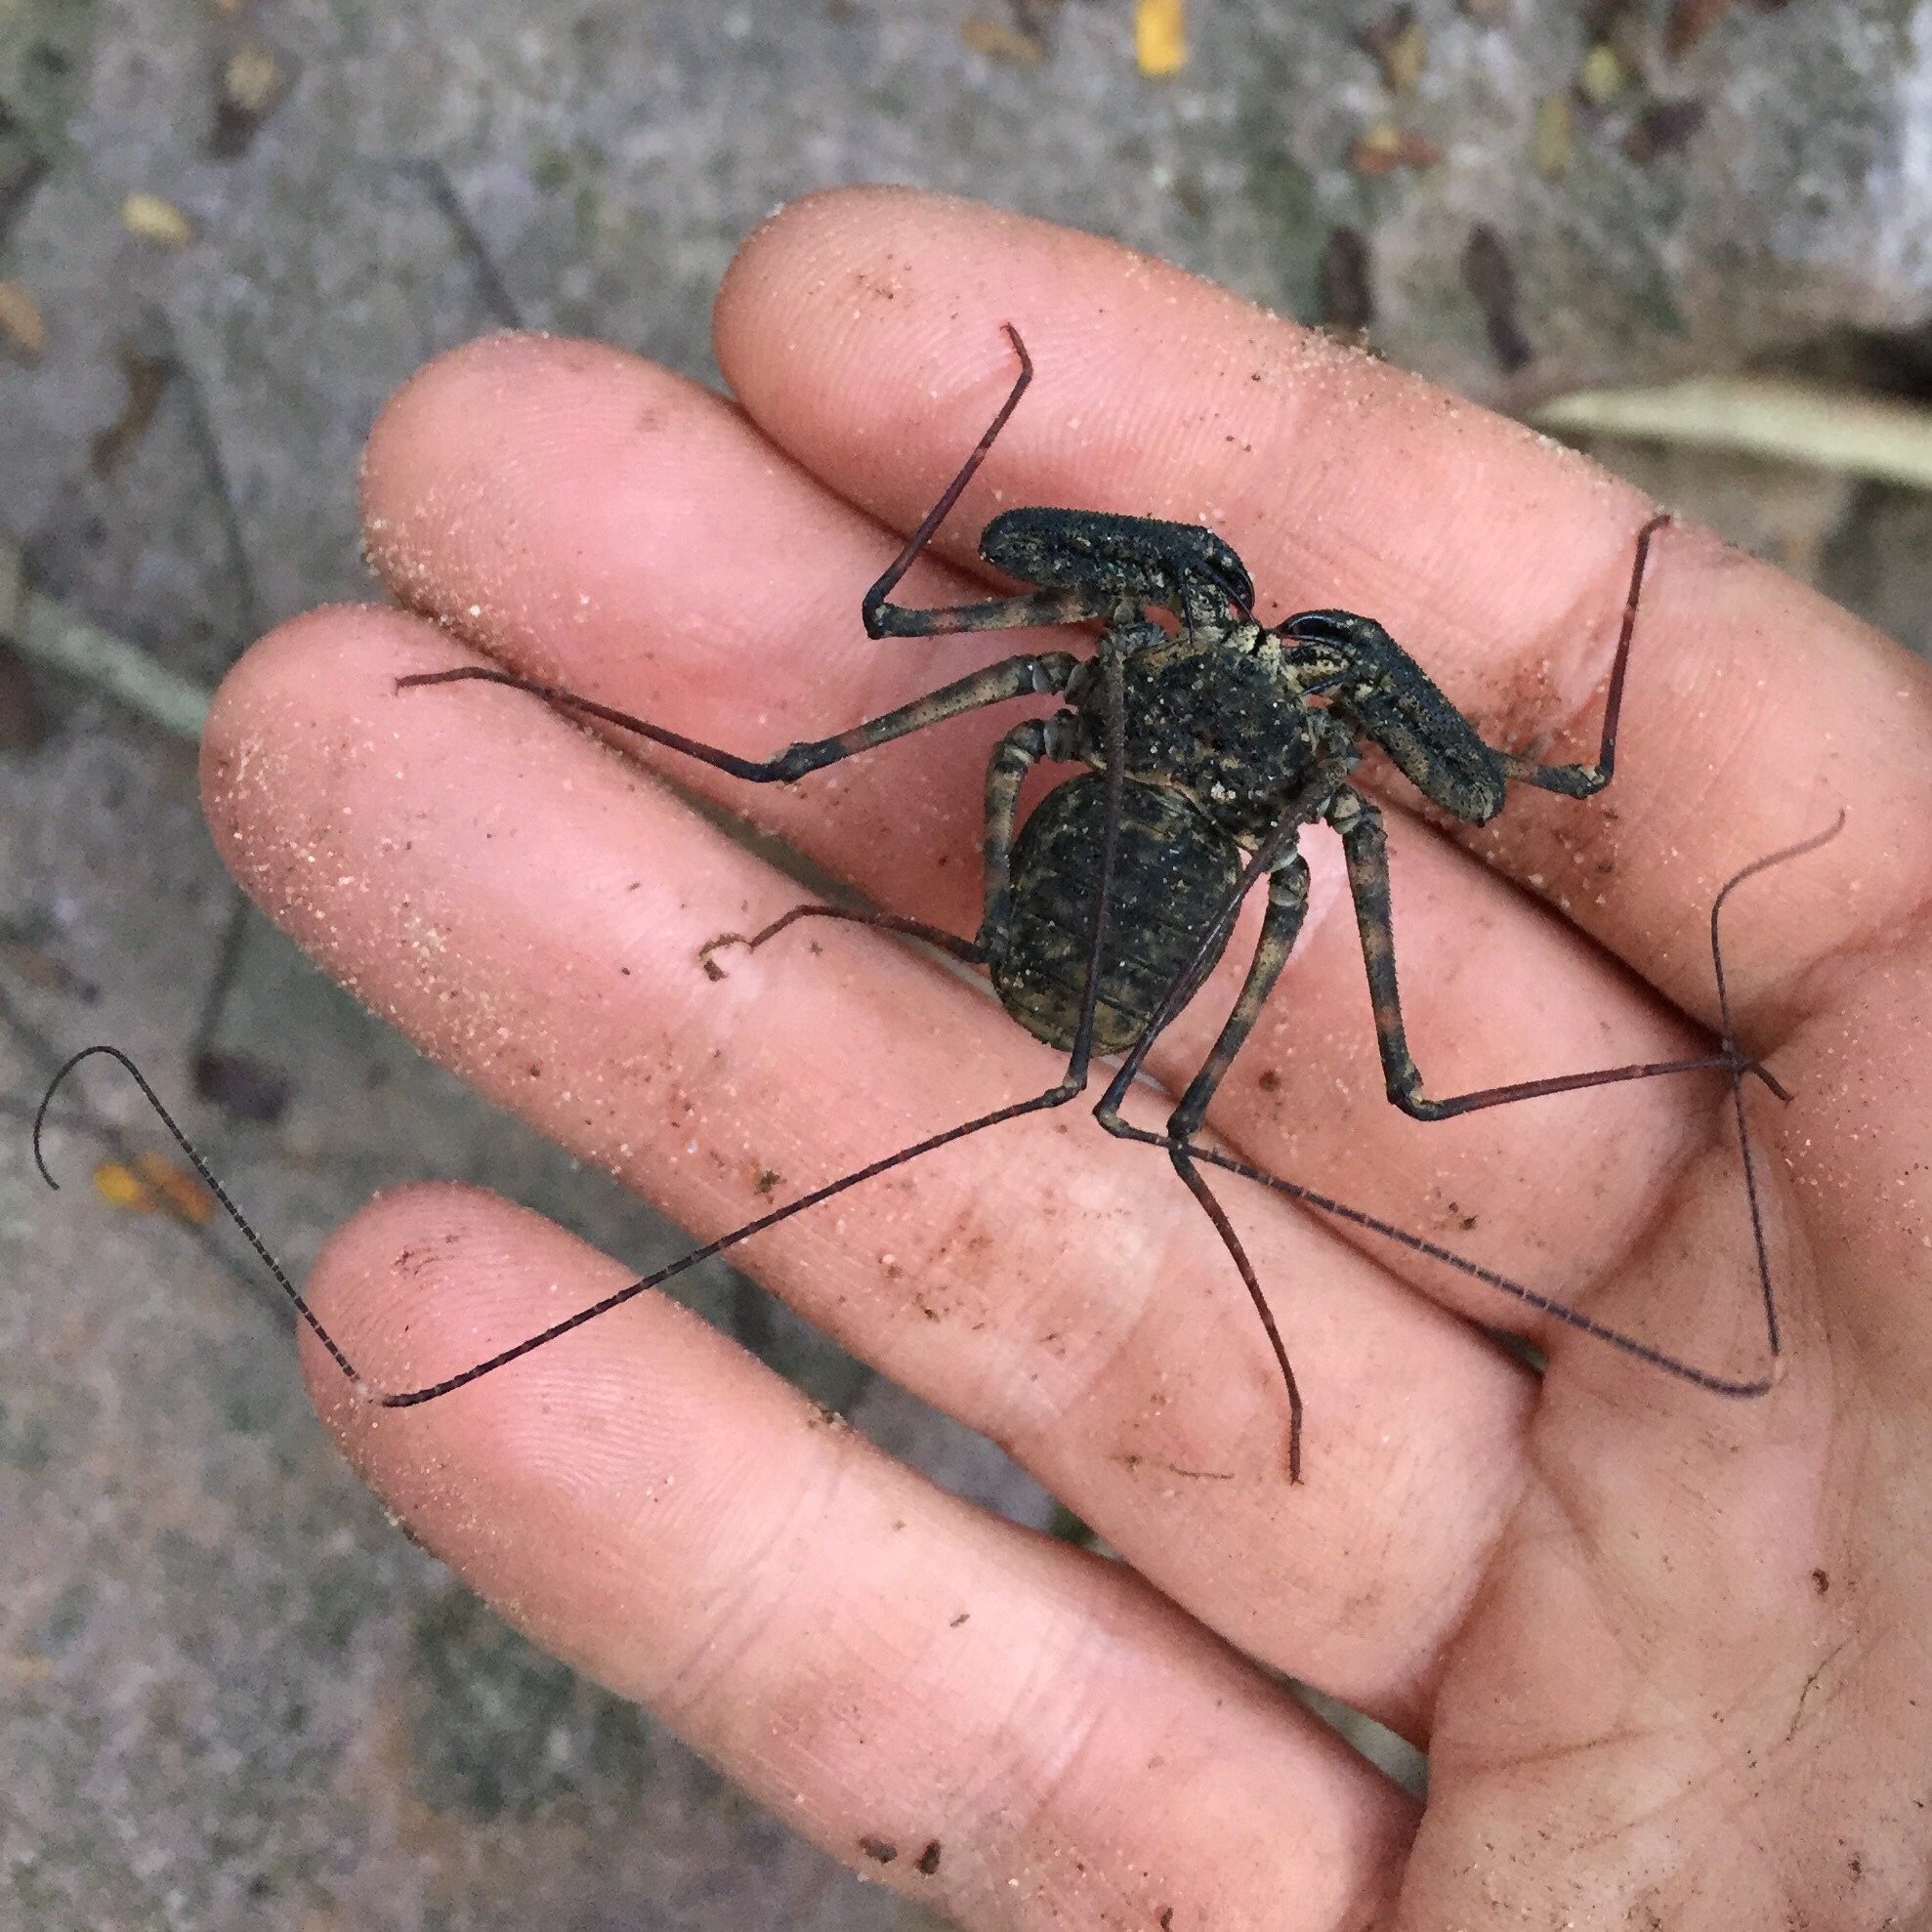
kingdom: Animalia
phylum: Arthropoda
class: Arachnida
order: Amblypygi
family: Phrynichidae
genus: Damon
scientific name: Damon annulatipes
